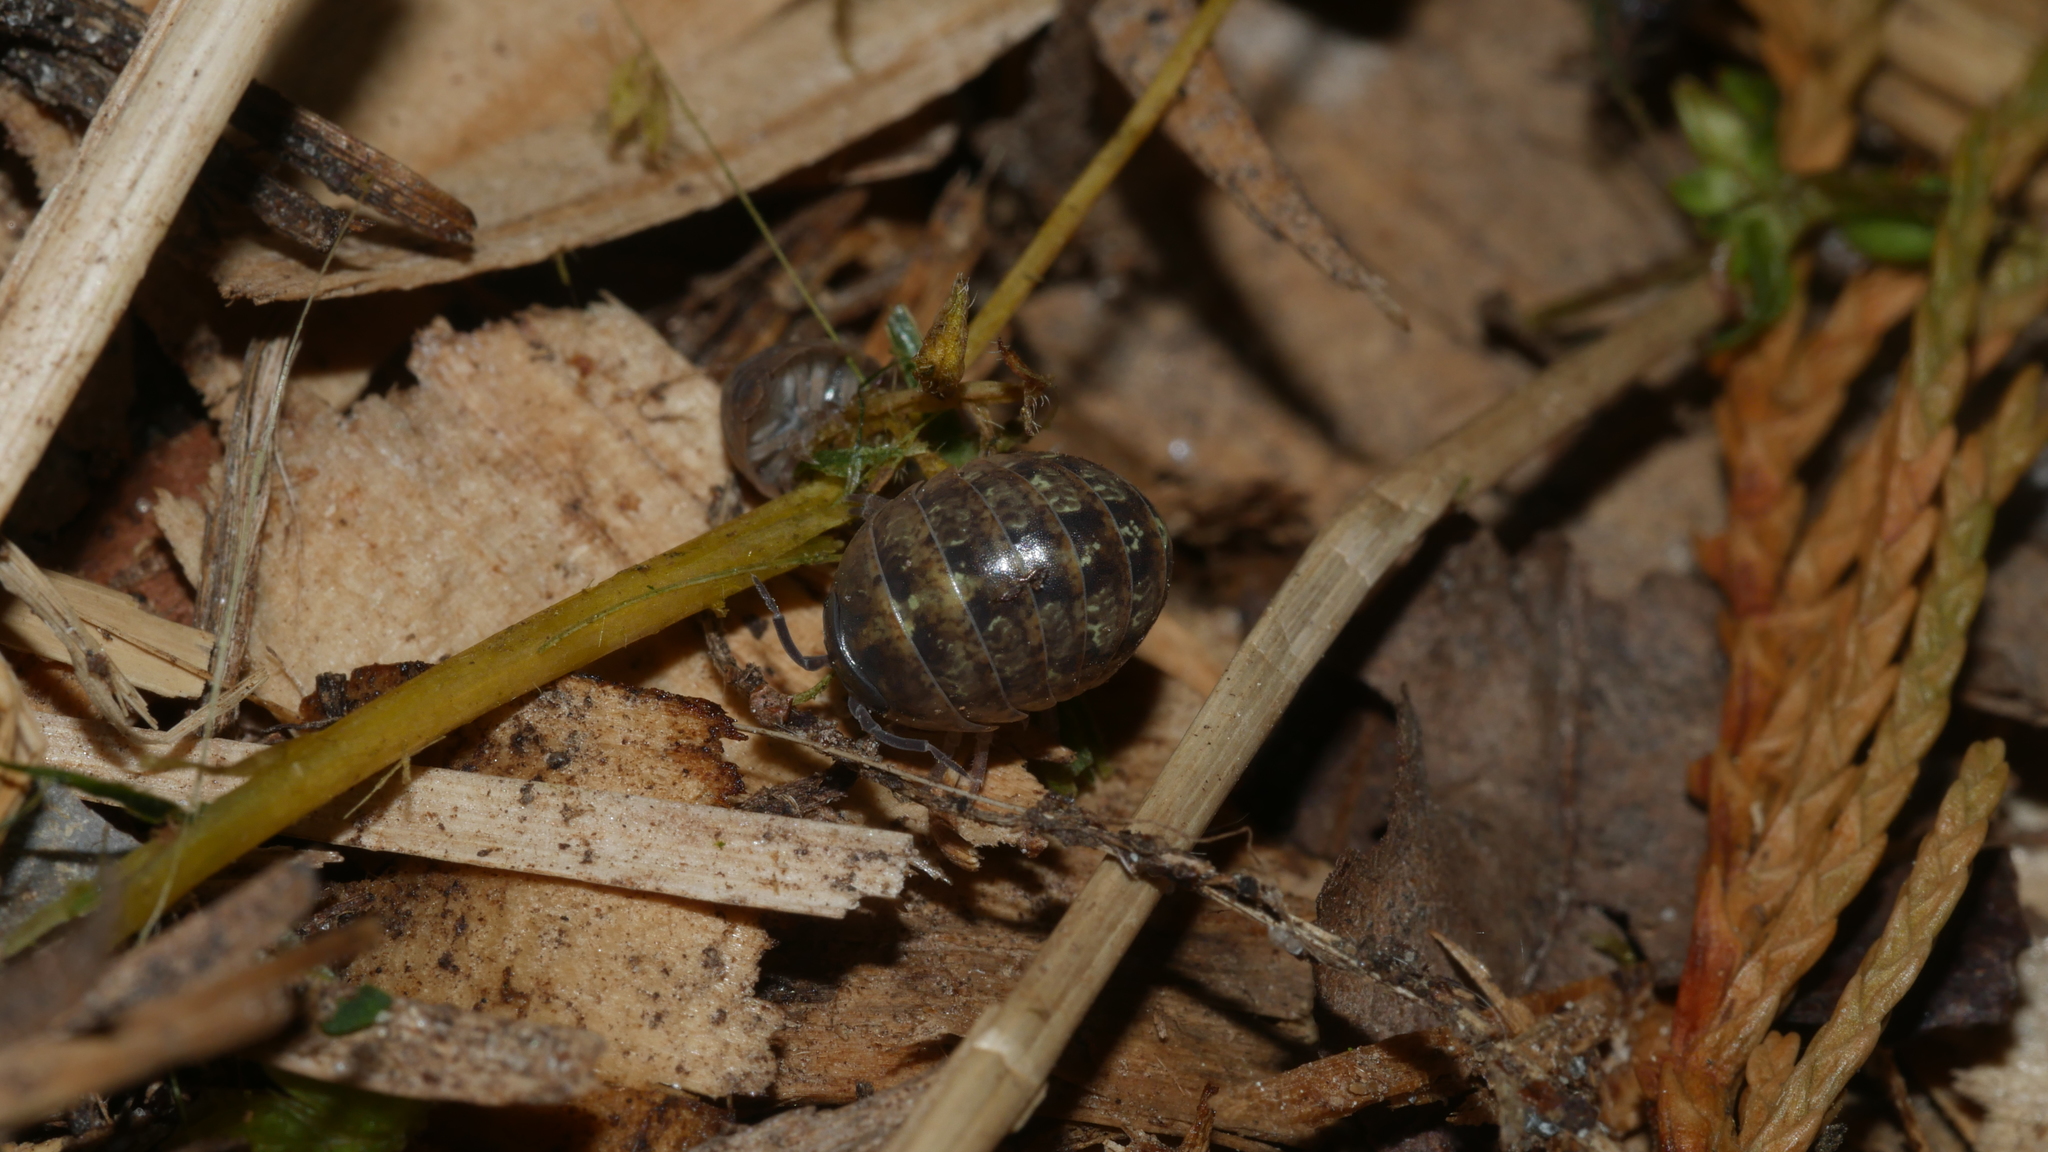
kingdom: Animalia
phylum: Arthropoda
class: Malacostraca
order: Isopoda
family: Armadillidiidae
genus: Armadillidium
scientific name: Armadillidium vulgare
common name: Common pill woodlouse
